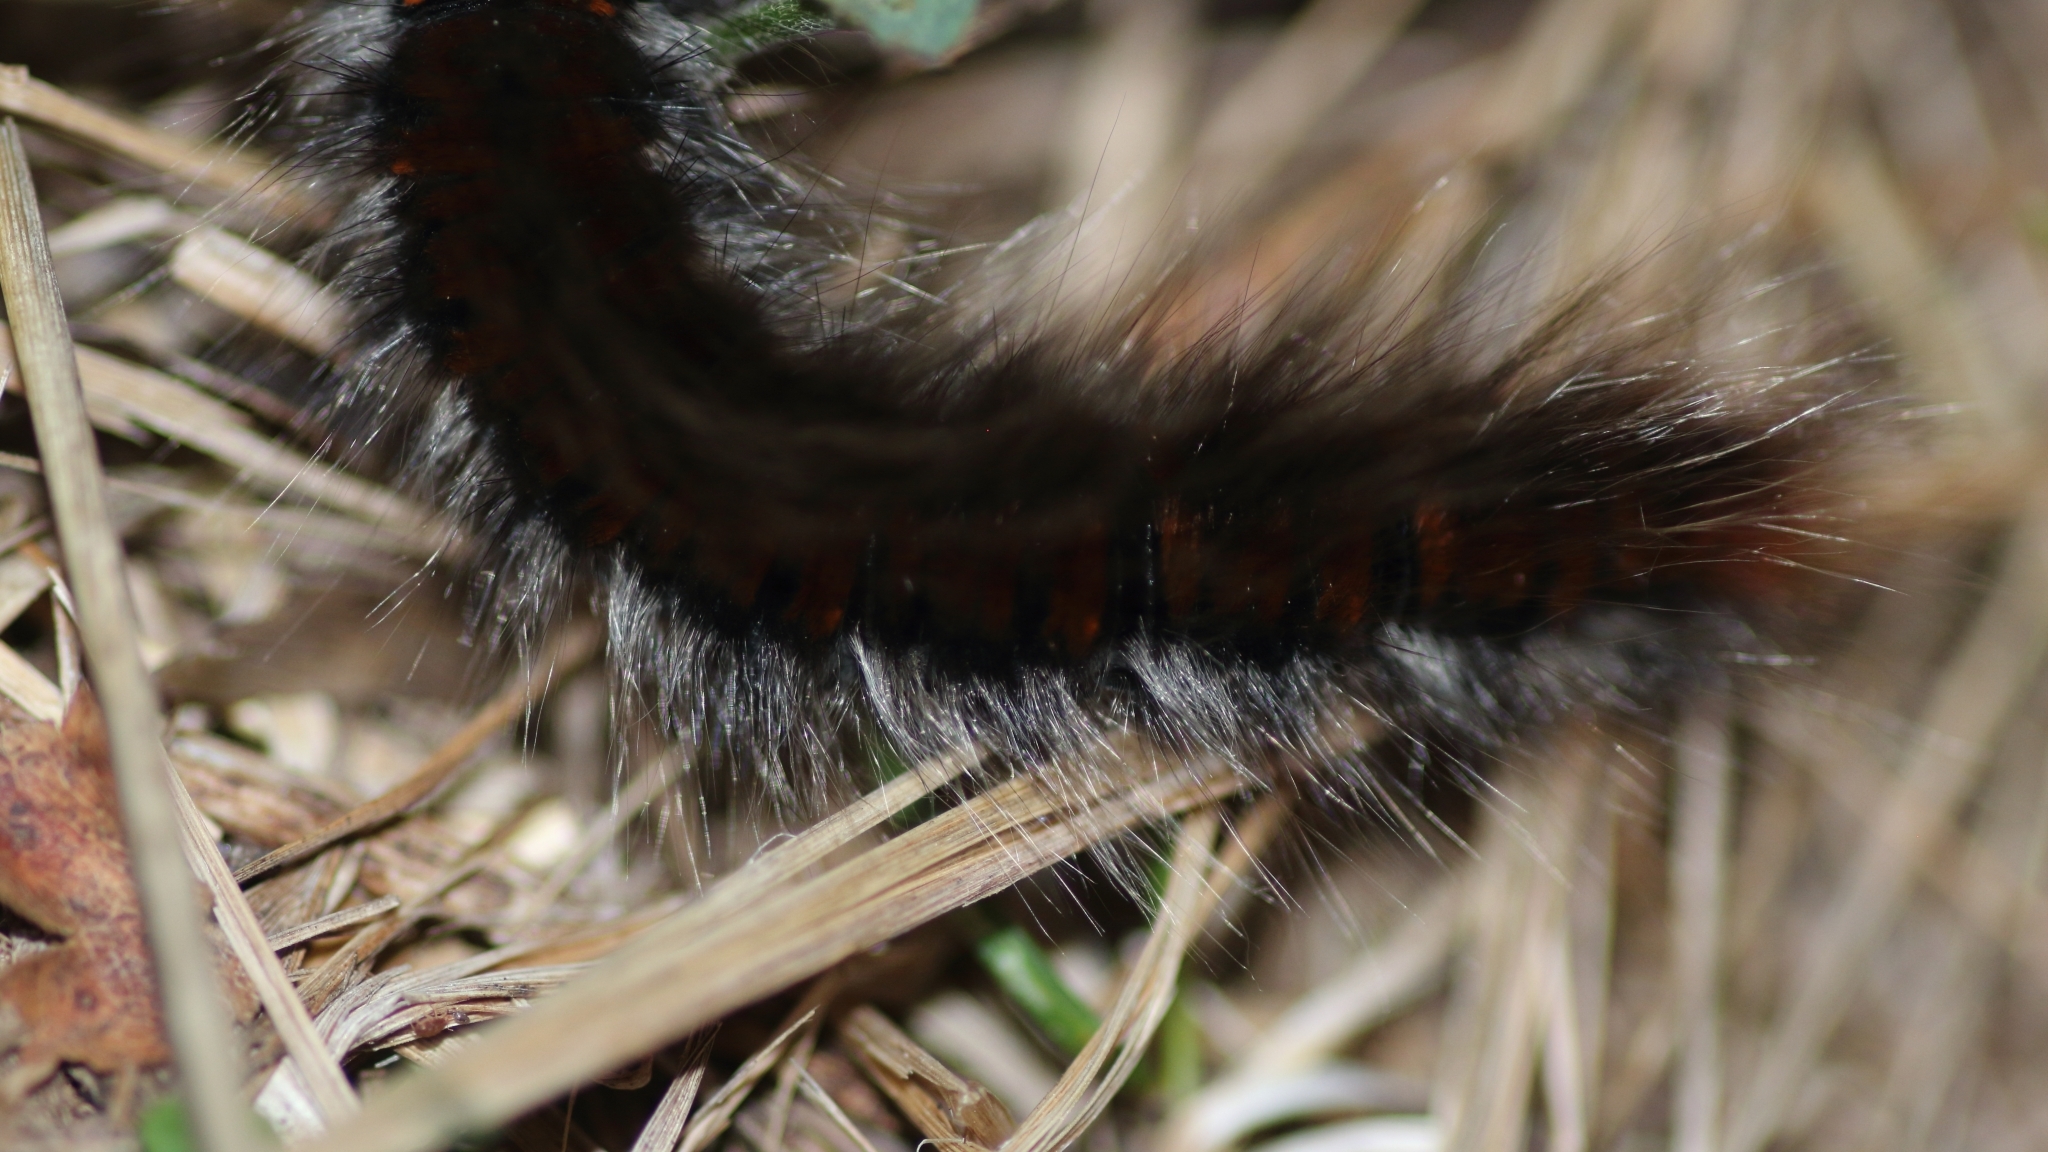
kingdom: Animalia
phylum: Arthropoda
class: Insecta
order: Lepidoptera
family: Lasiocampidae
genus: Macrothylacia
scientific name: Macrothylacia rubi
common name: Fox moth
